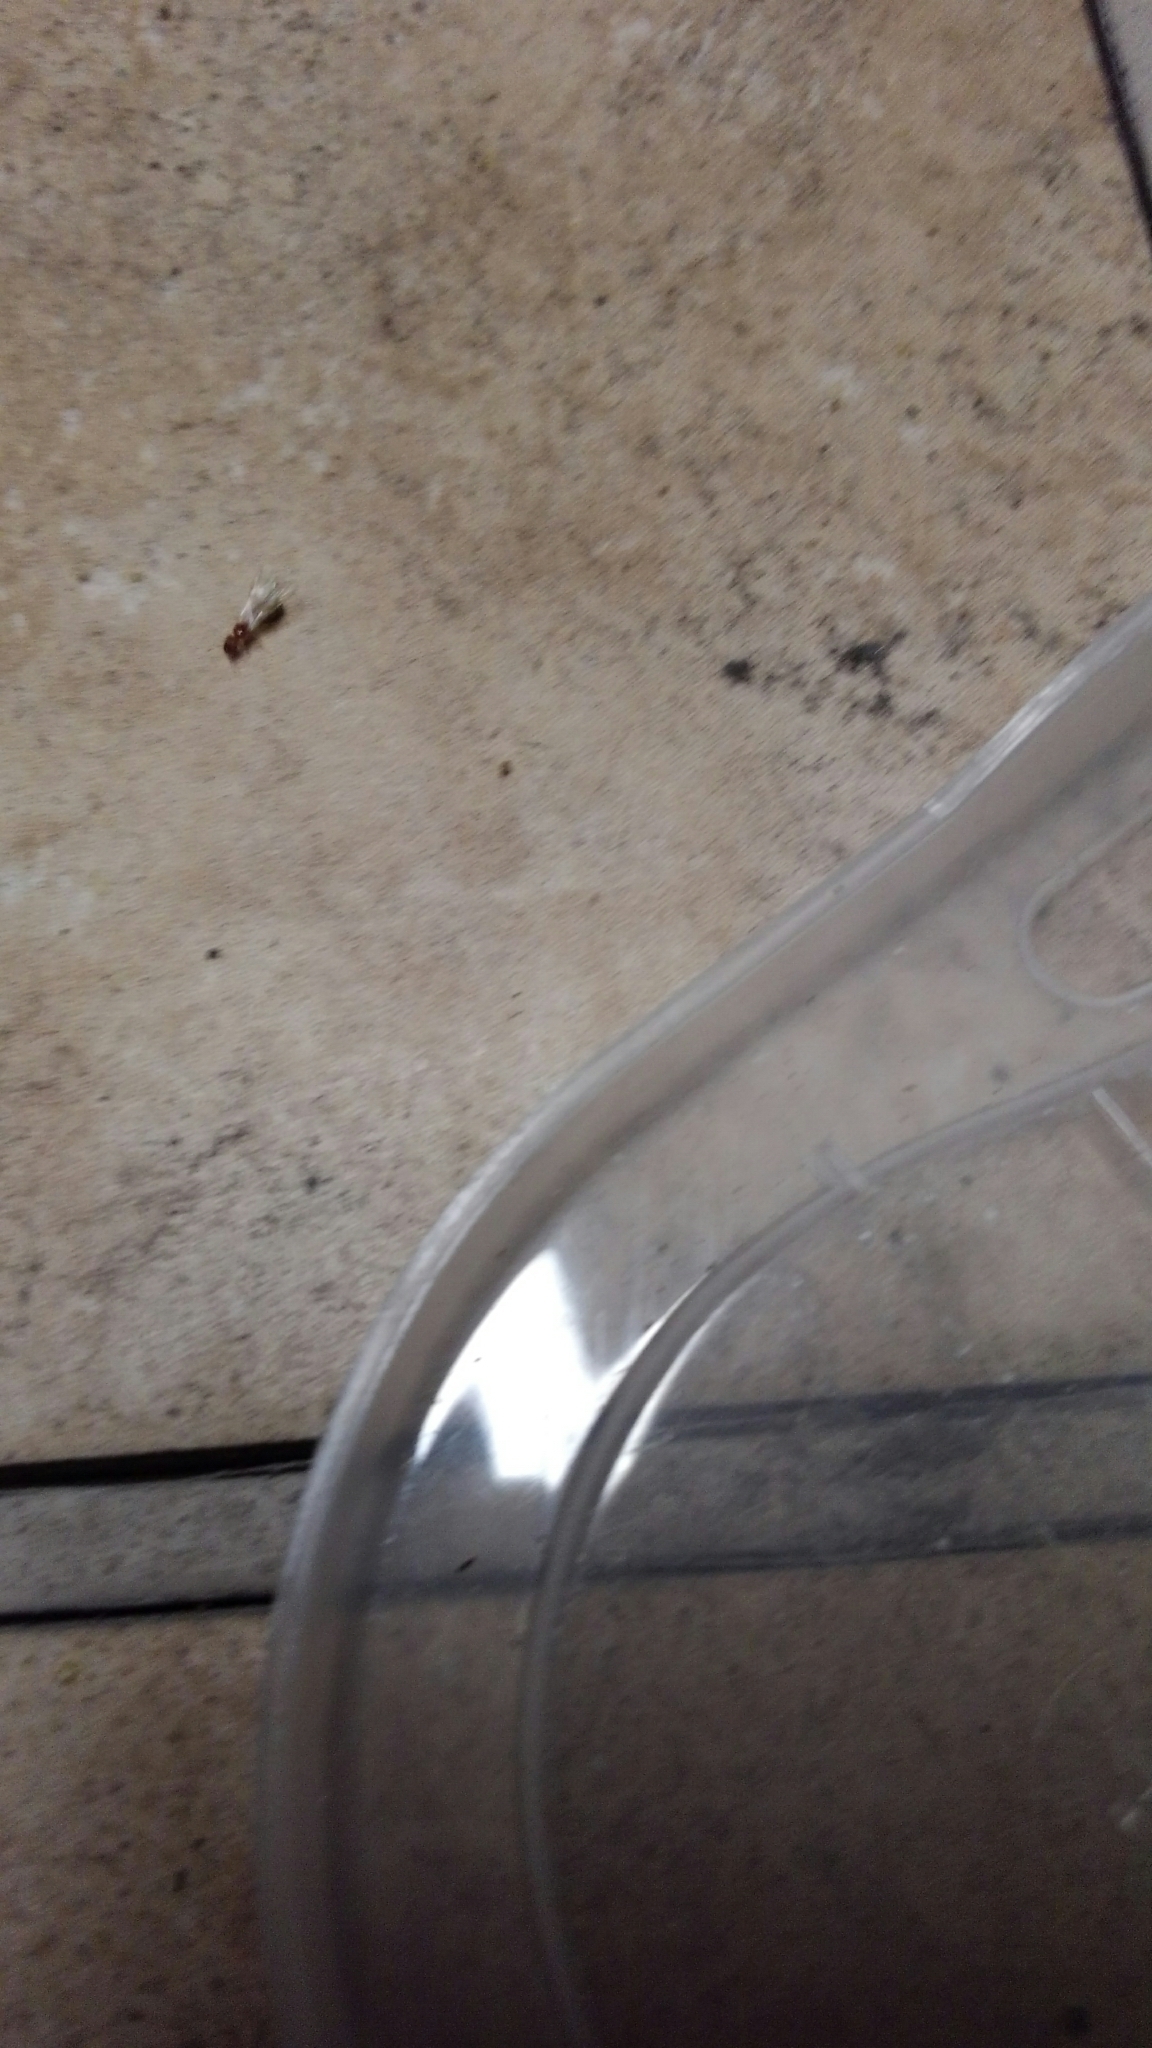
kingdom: Animalia
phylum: Arthropoda
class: Insecta
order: Hymenoptera
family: Formicidae
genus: Pheidole
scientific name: Pheidole parva
